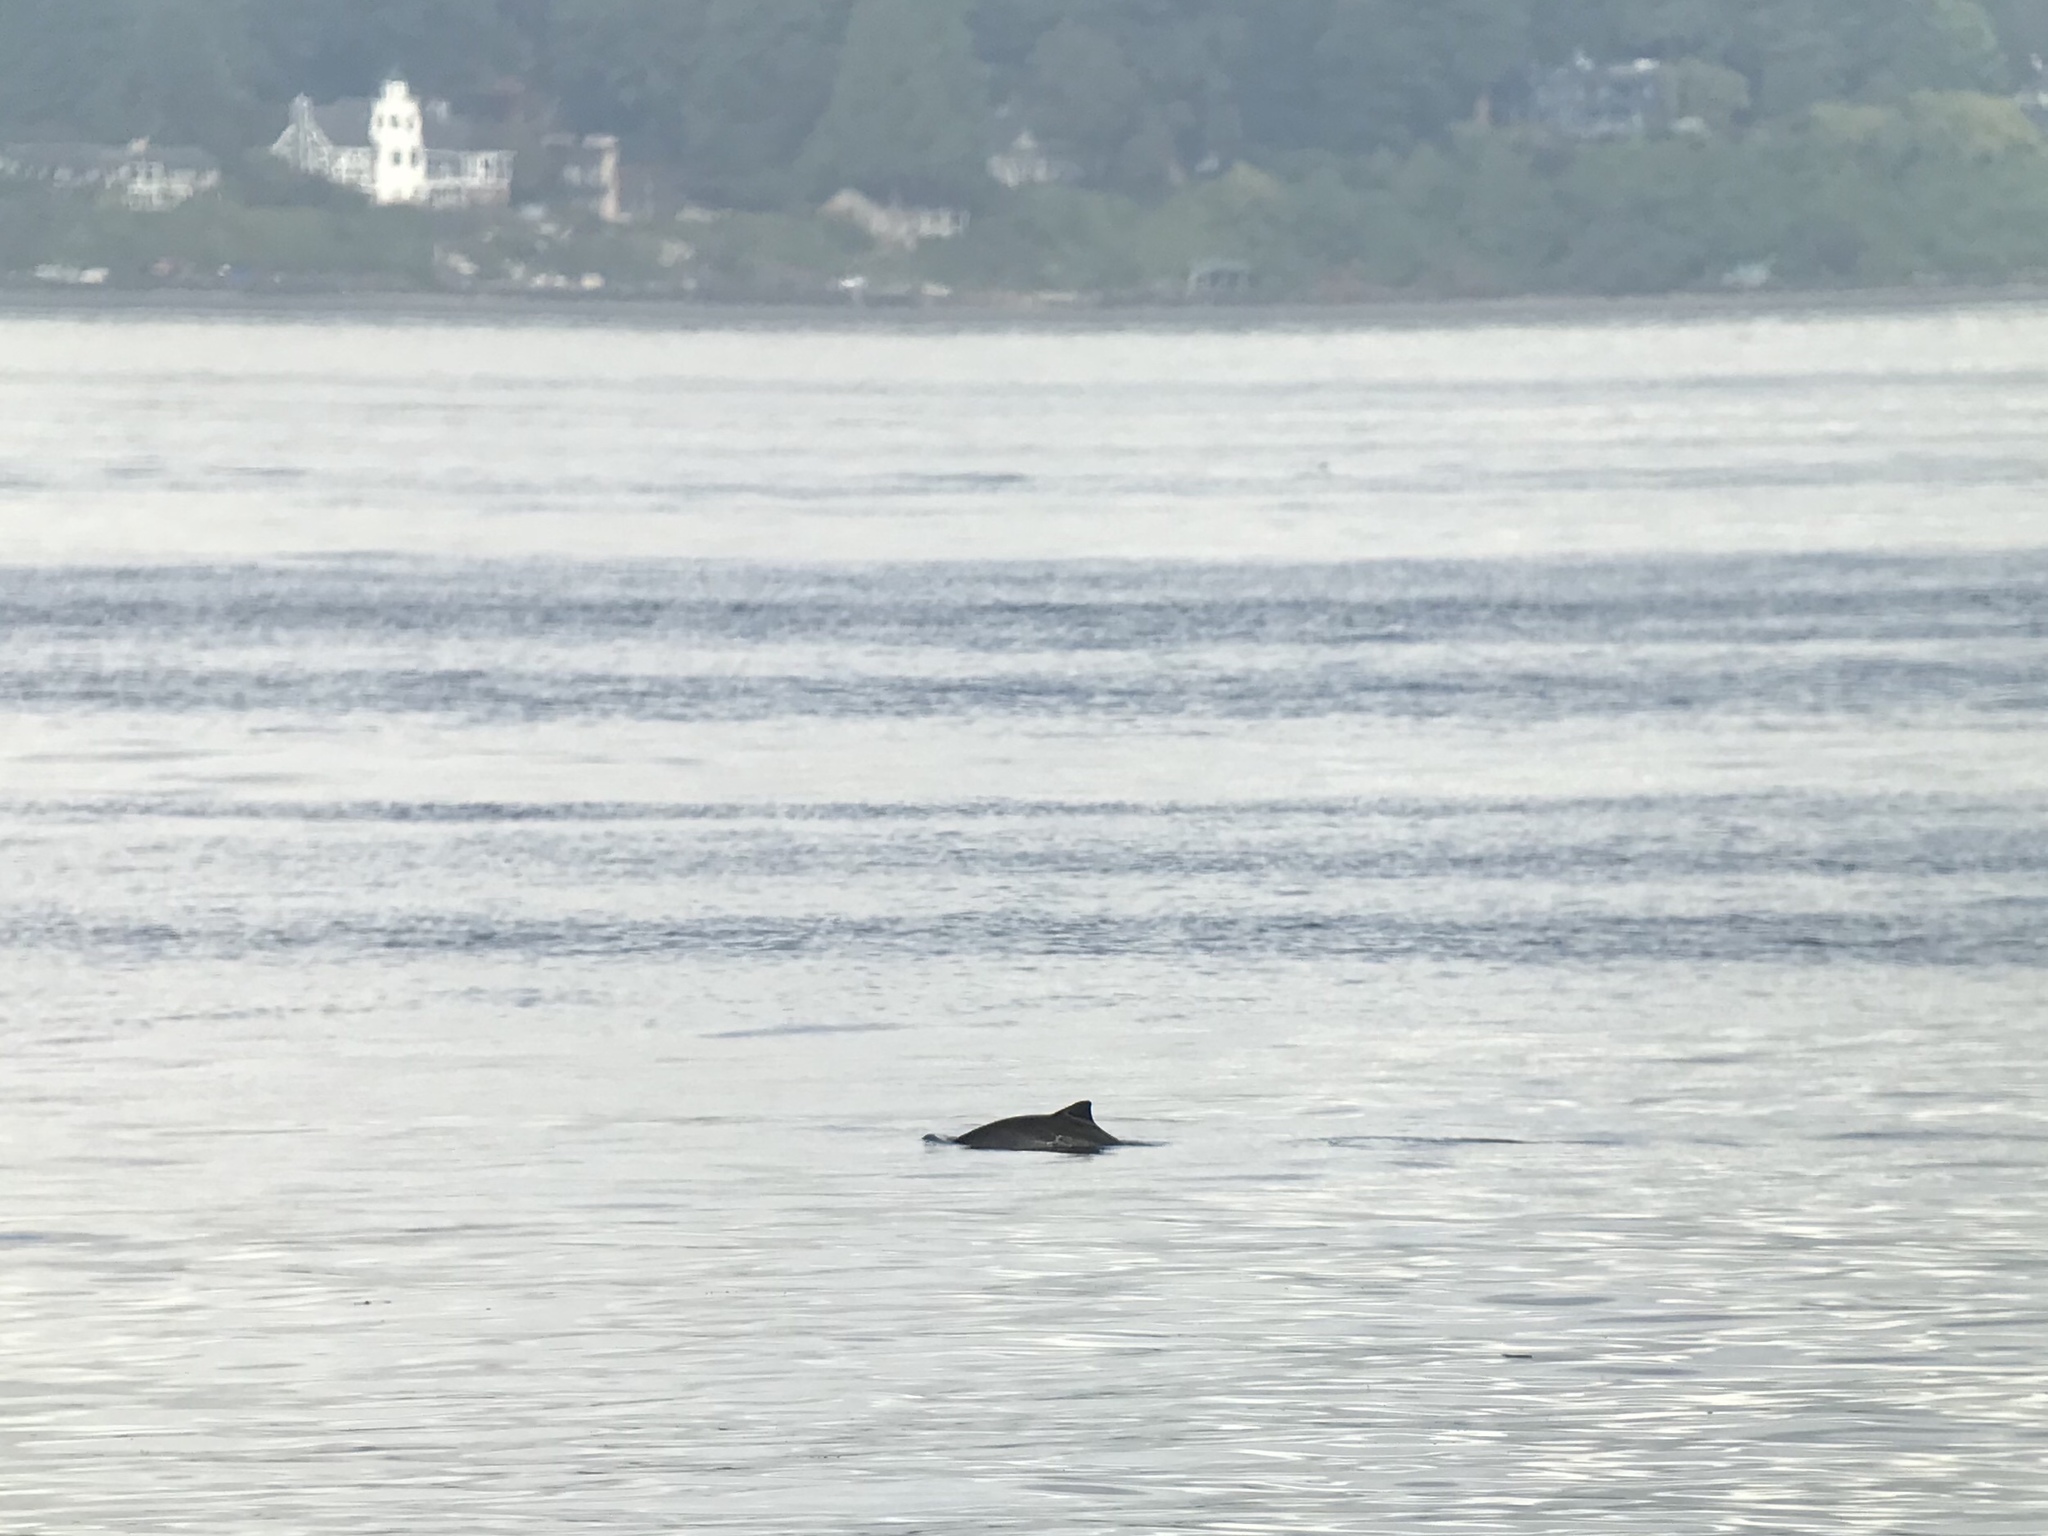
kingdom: Animalia
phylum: Chordata
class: Mammalia
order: Cetacea
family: Phocoenidae
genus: Phocoena
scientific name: Phocoena phocoena
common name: Harbor porpoise
